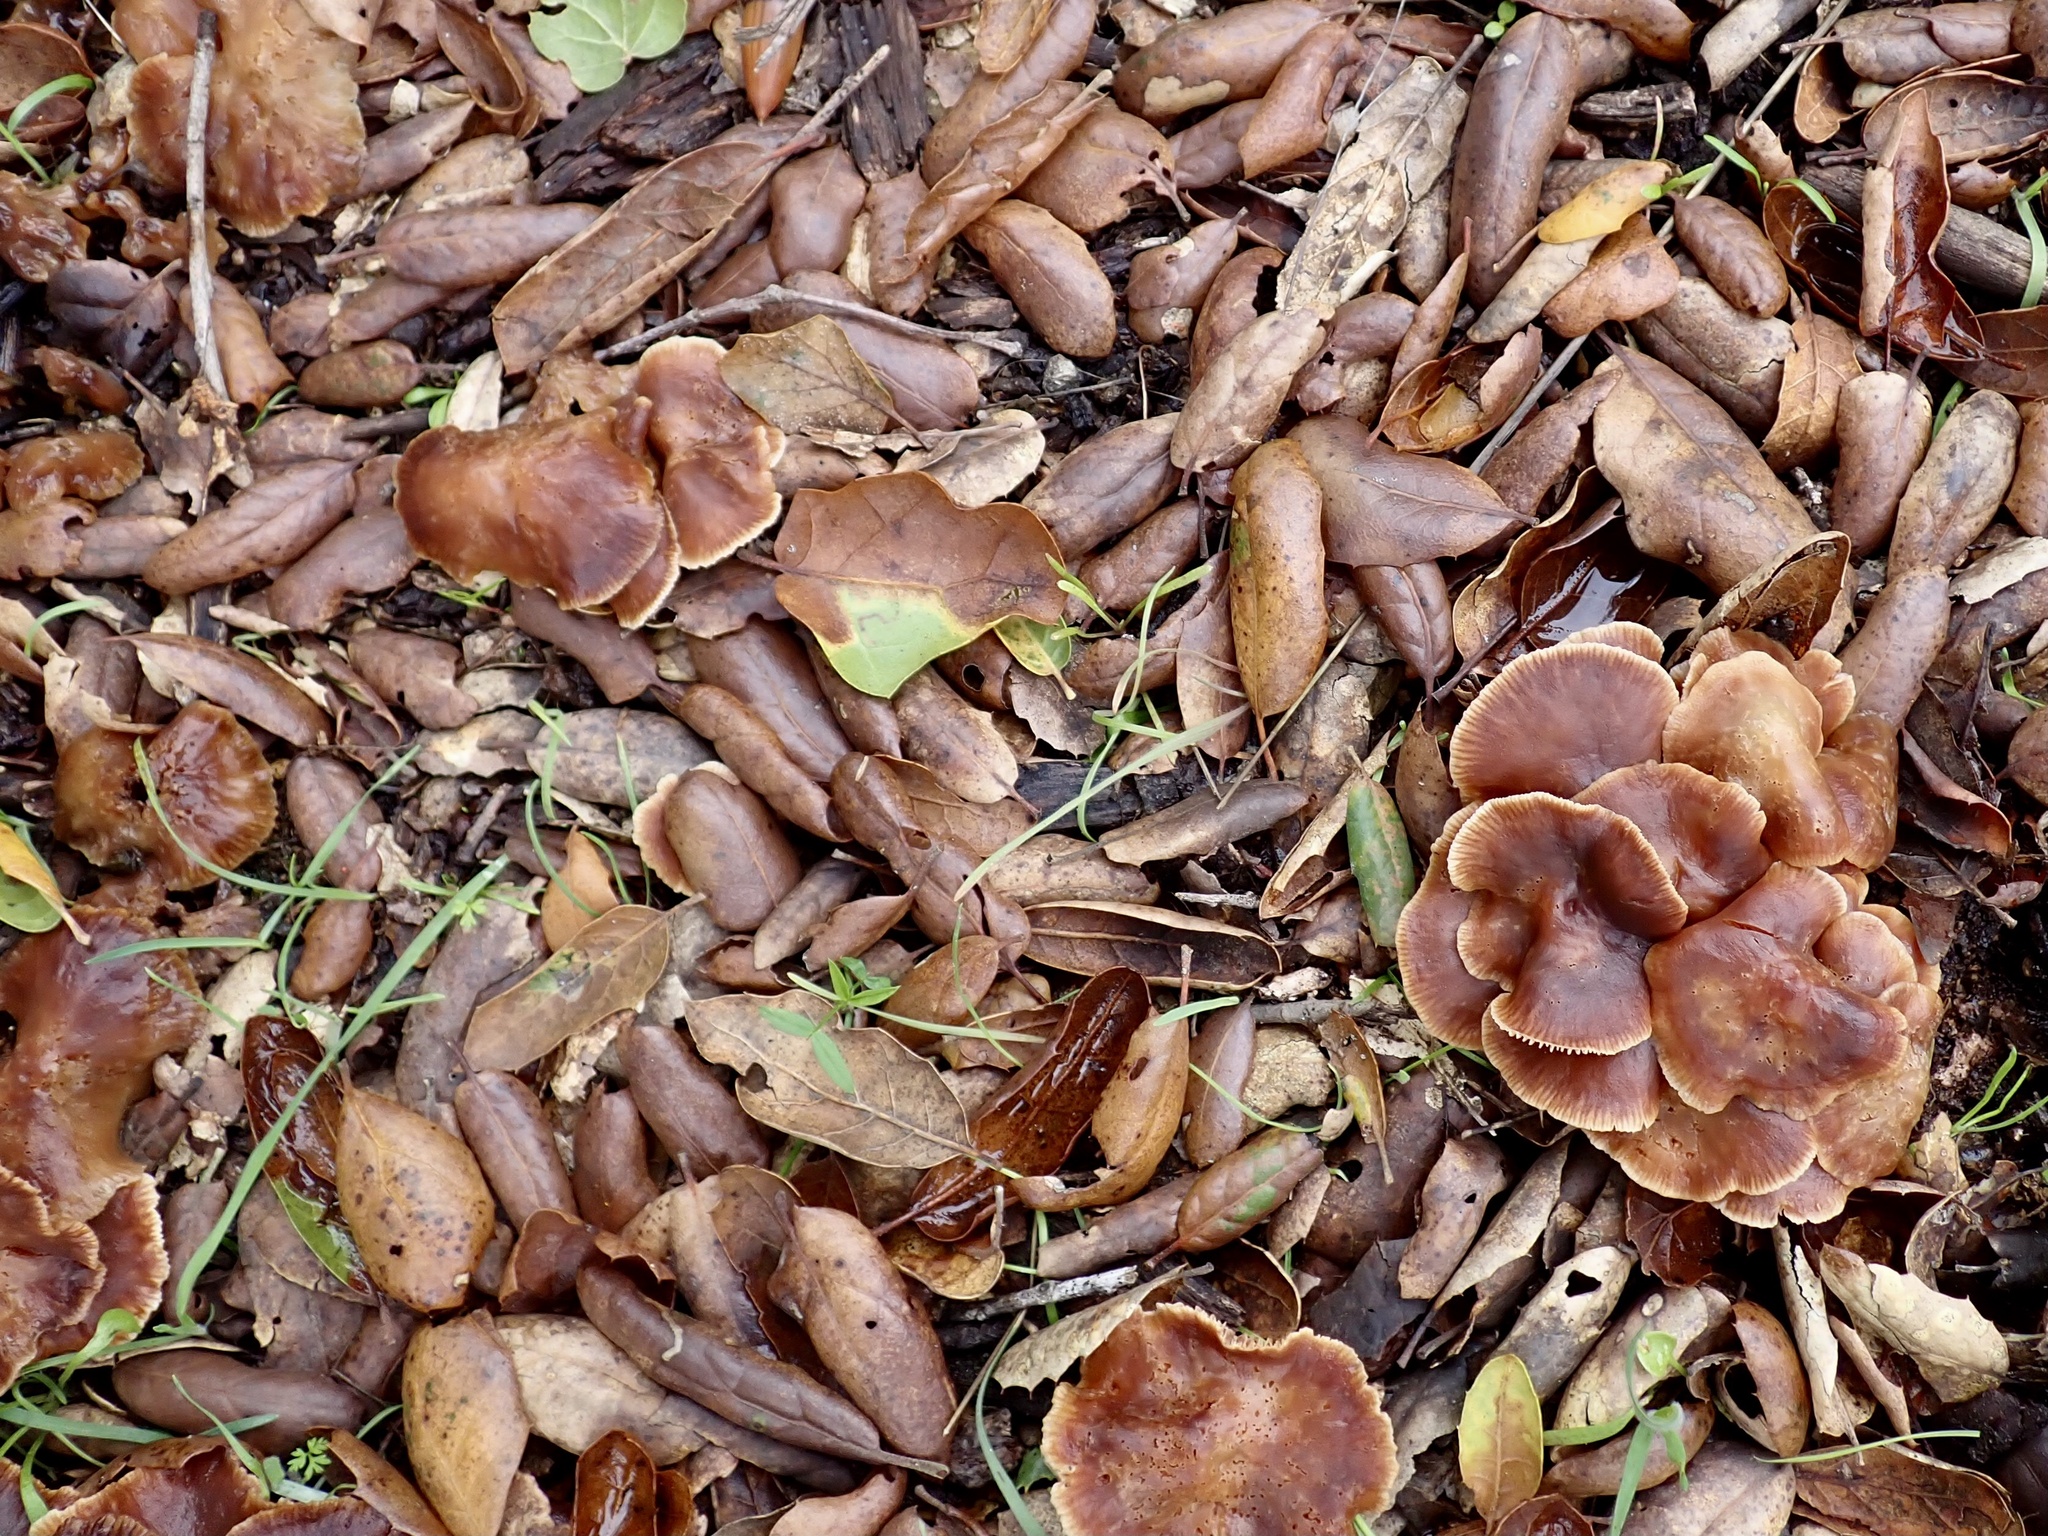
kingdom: Fungi
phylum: Basidiomycota
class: Agaricomycetes
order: Agaricales
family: Omphalotaceae
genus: Gymnopus
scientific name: Gymnopus brassicolens
